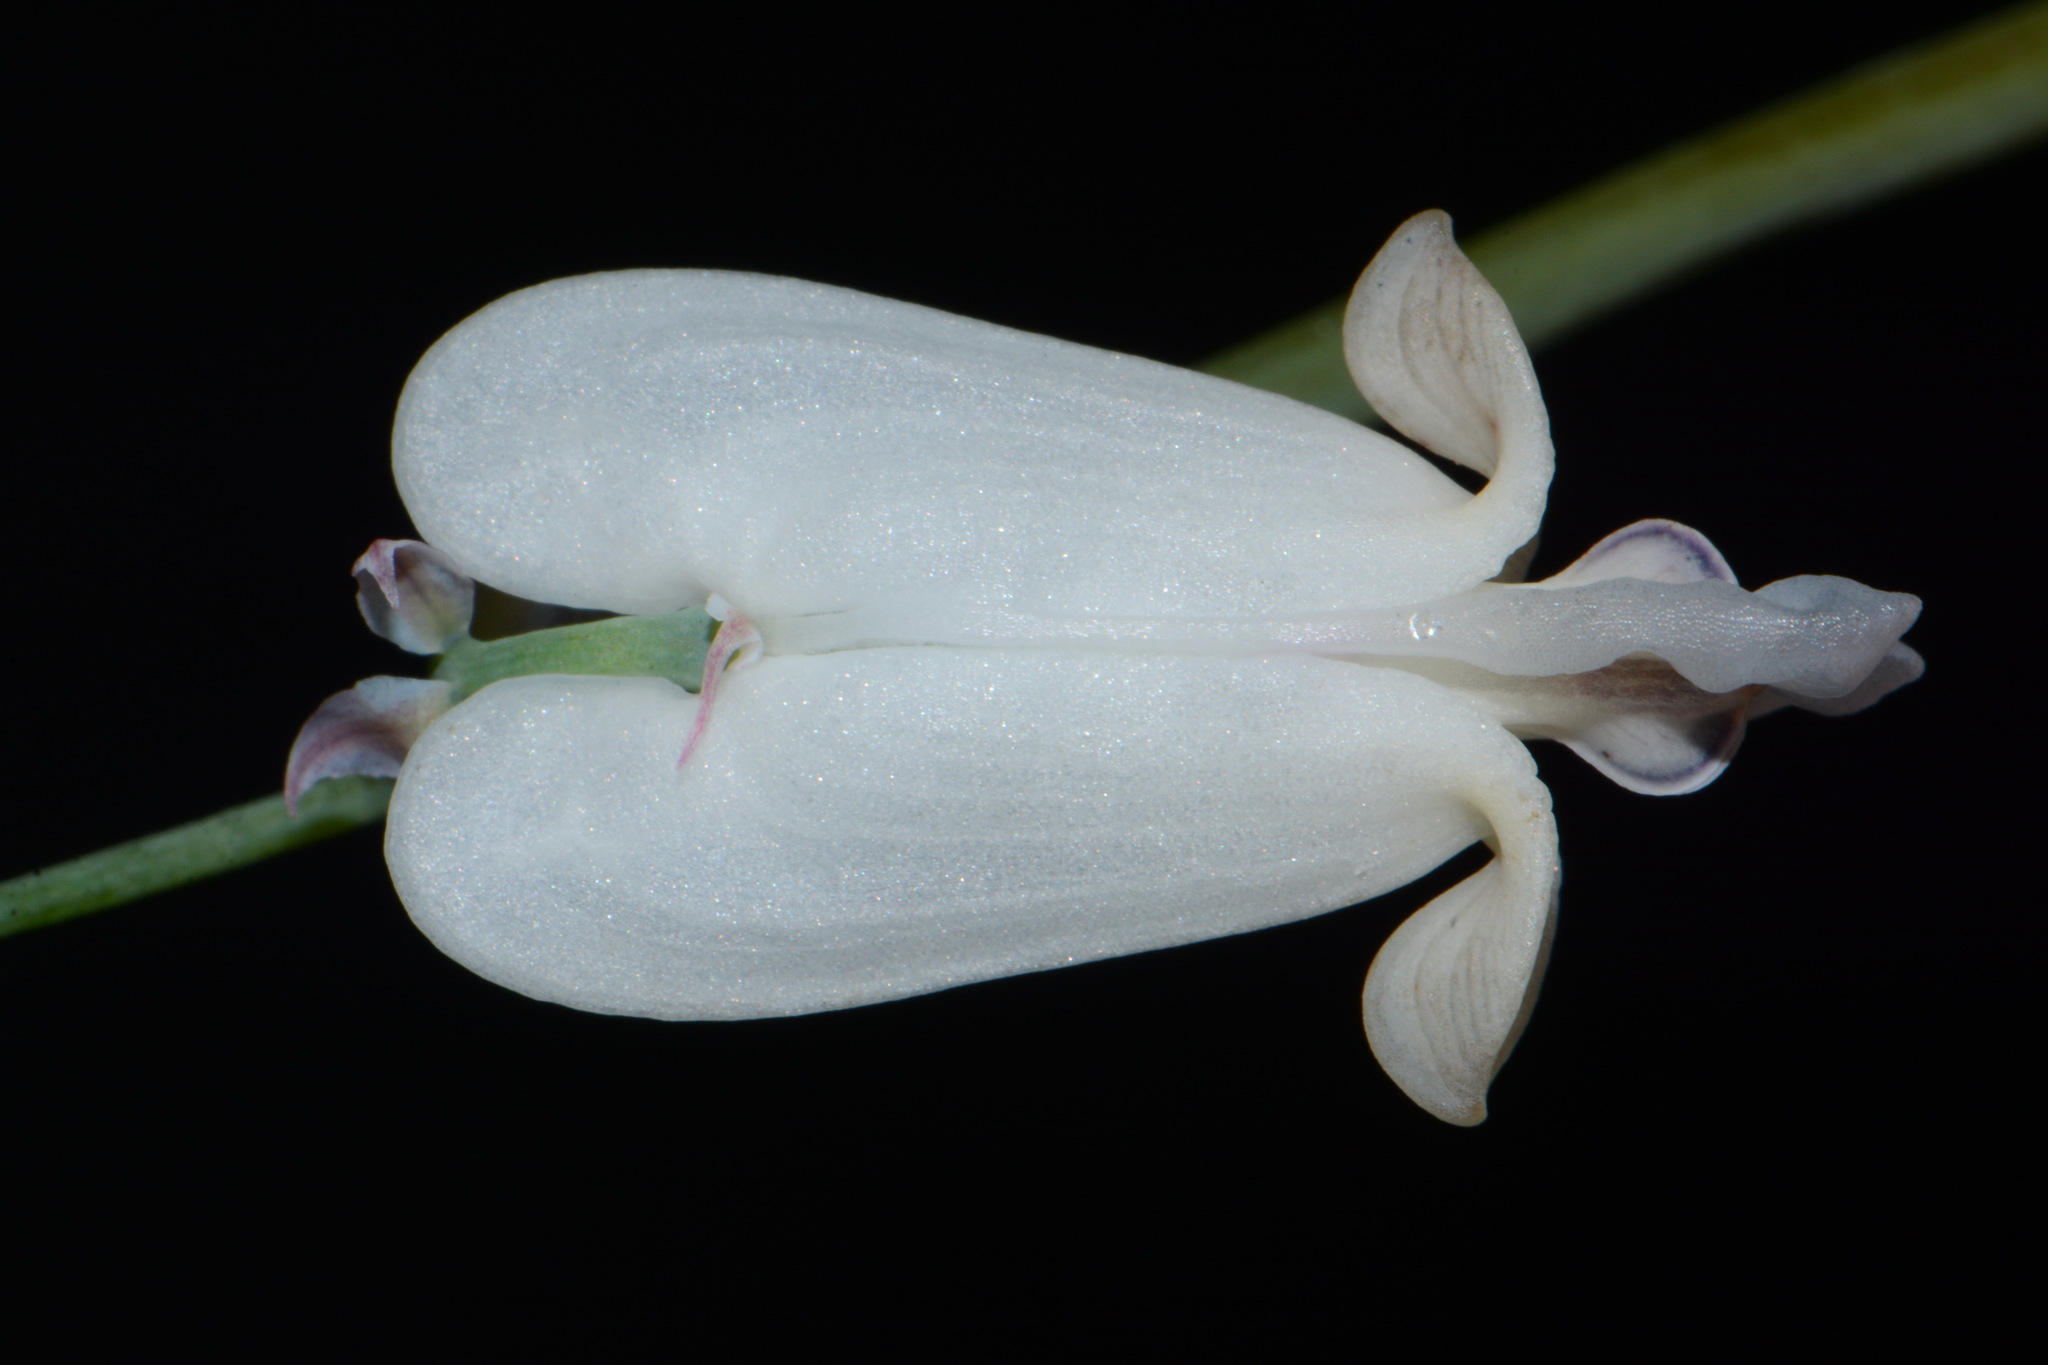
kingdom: Plantae
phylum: Tracheophyta
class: Magnoliopsida
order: Ranunculales
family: Papaveraceae
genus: Dicentra
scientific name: Dicentra canadensis
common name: Squirrel-corn
